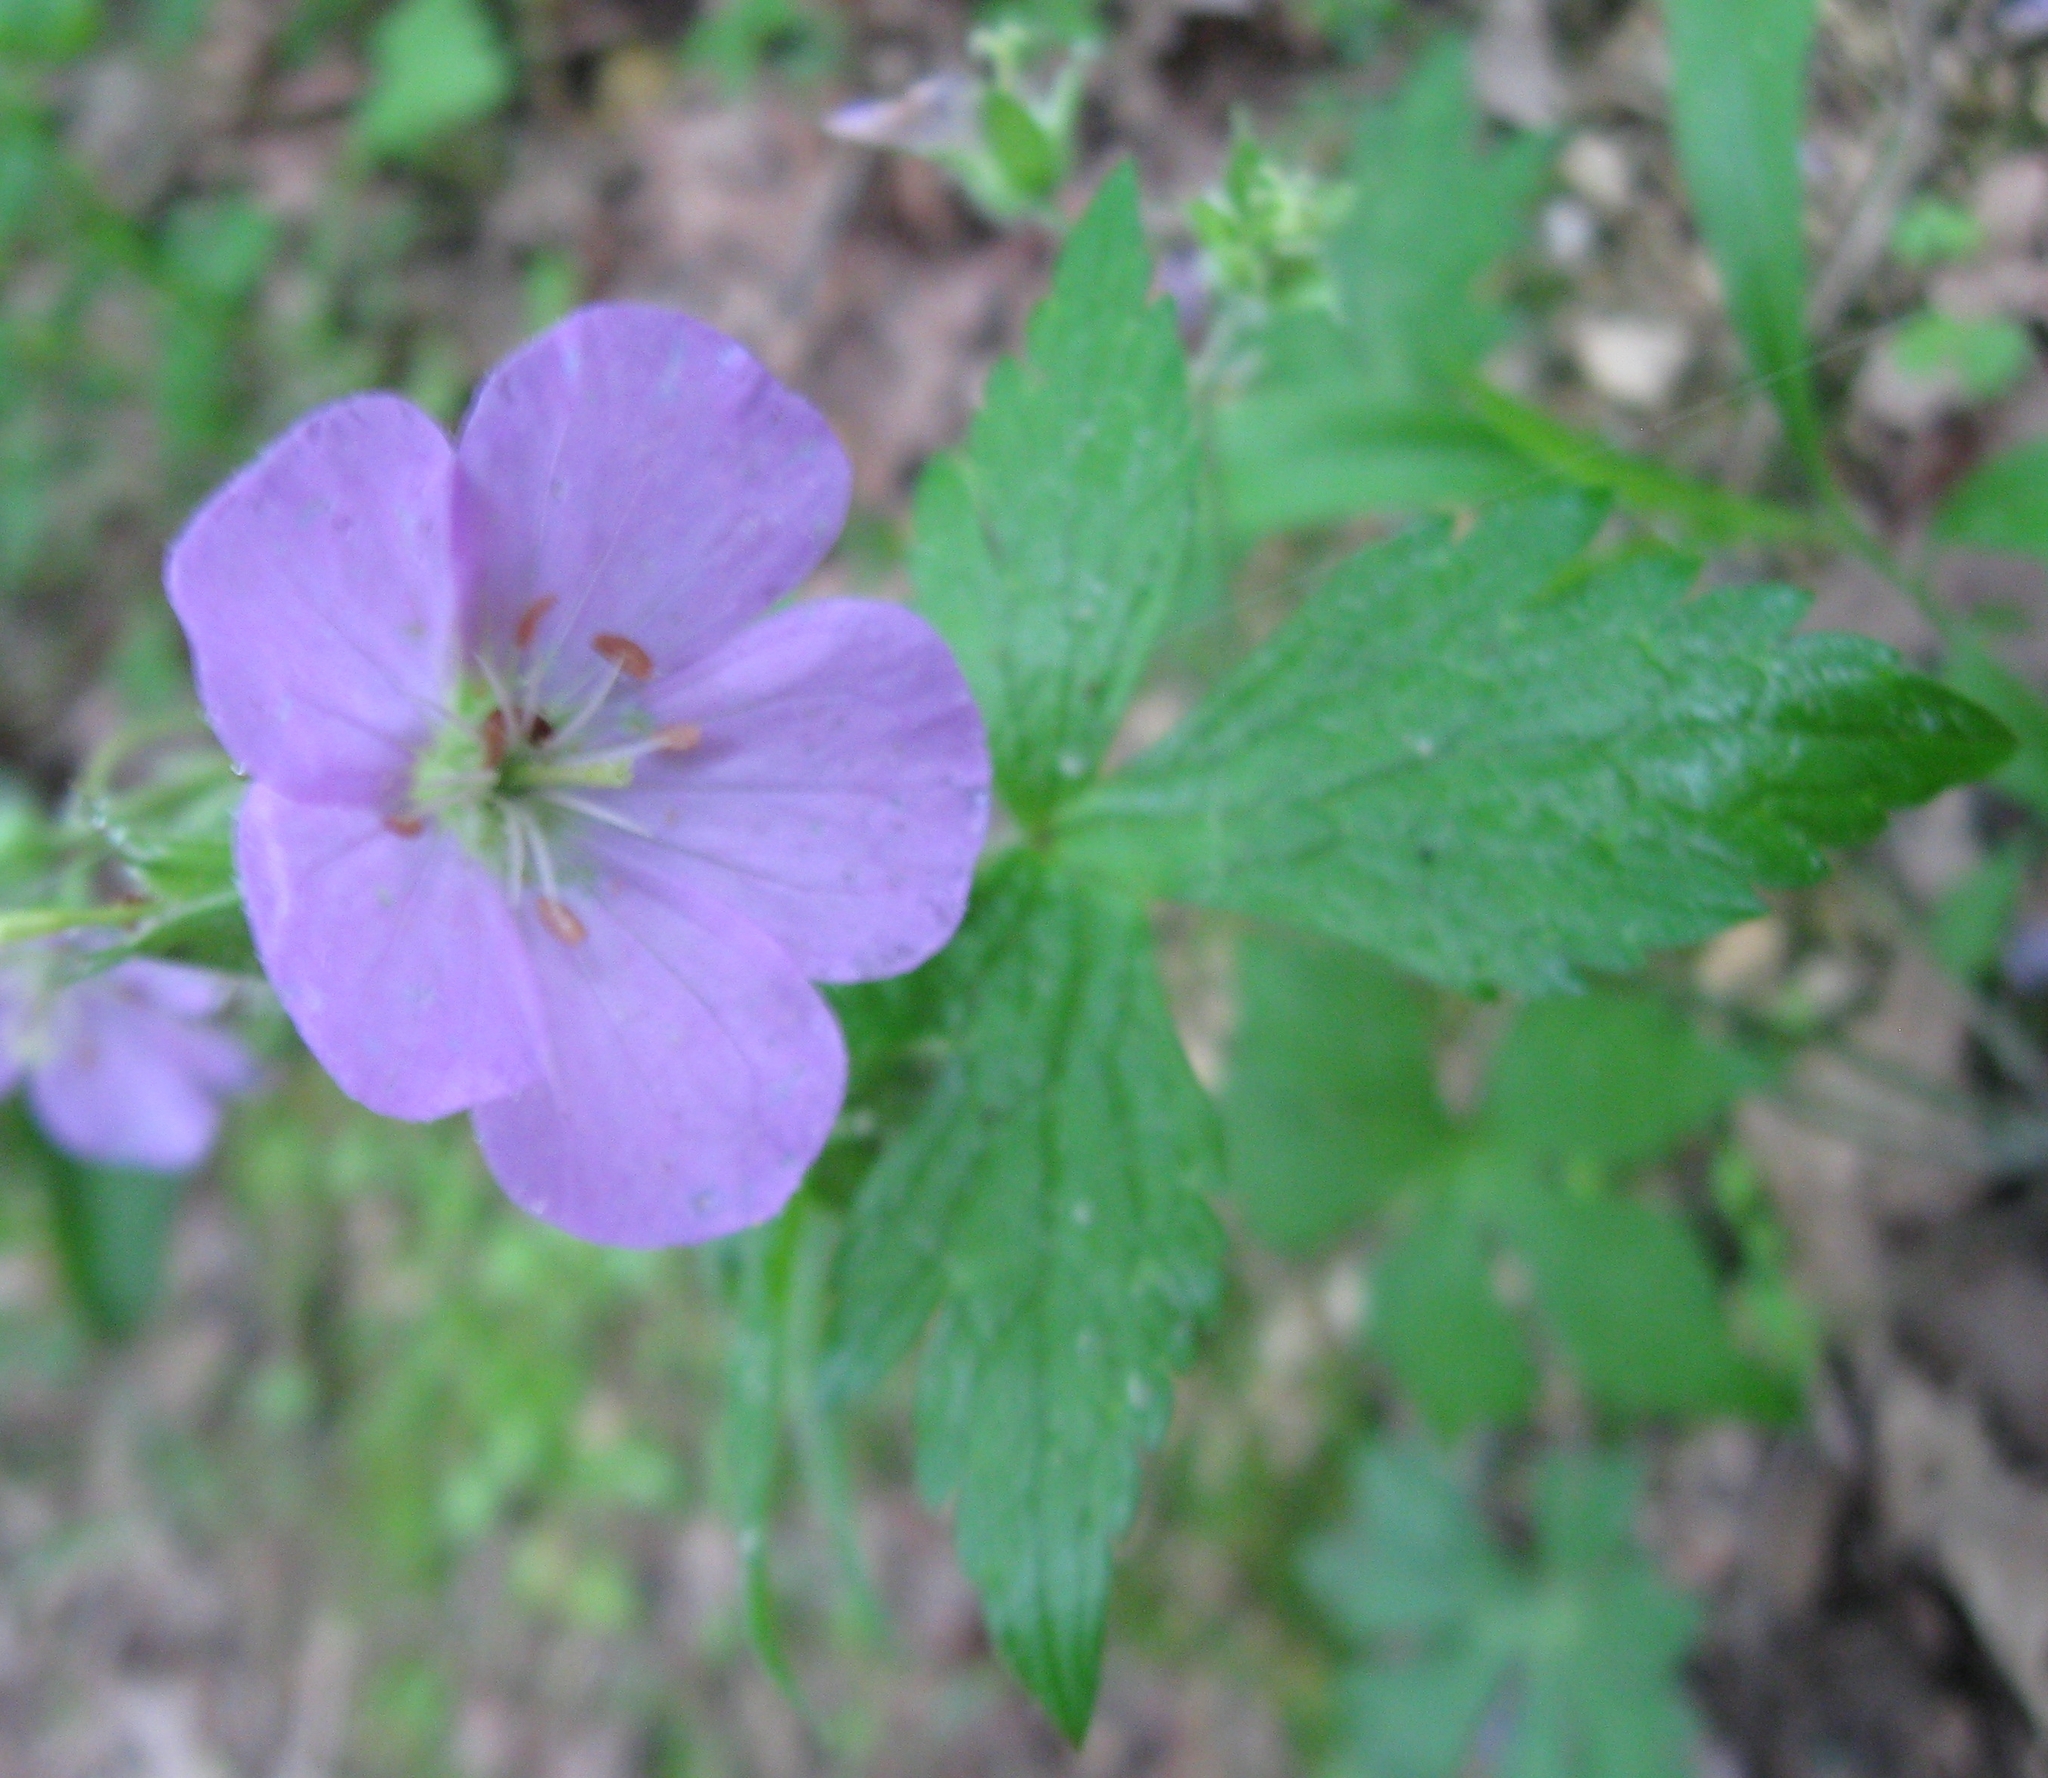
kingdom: Plantae
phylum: Tracheophyta
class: Magnoliopsida
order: Geraniales
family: Geraniaceae
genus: Geranium
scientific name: Geranium maculatum
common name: Spotted geranium
